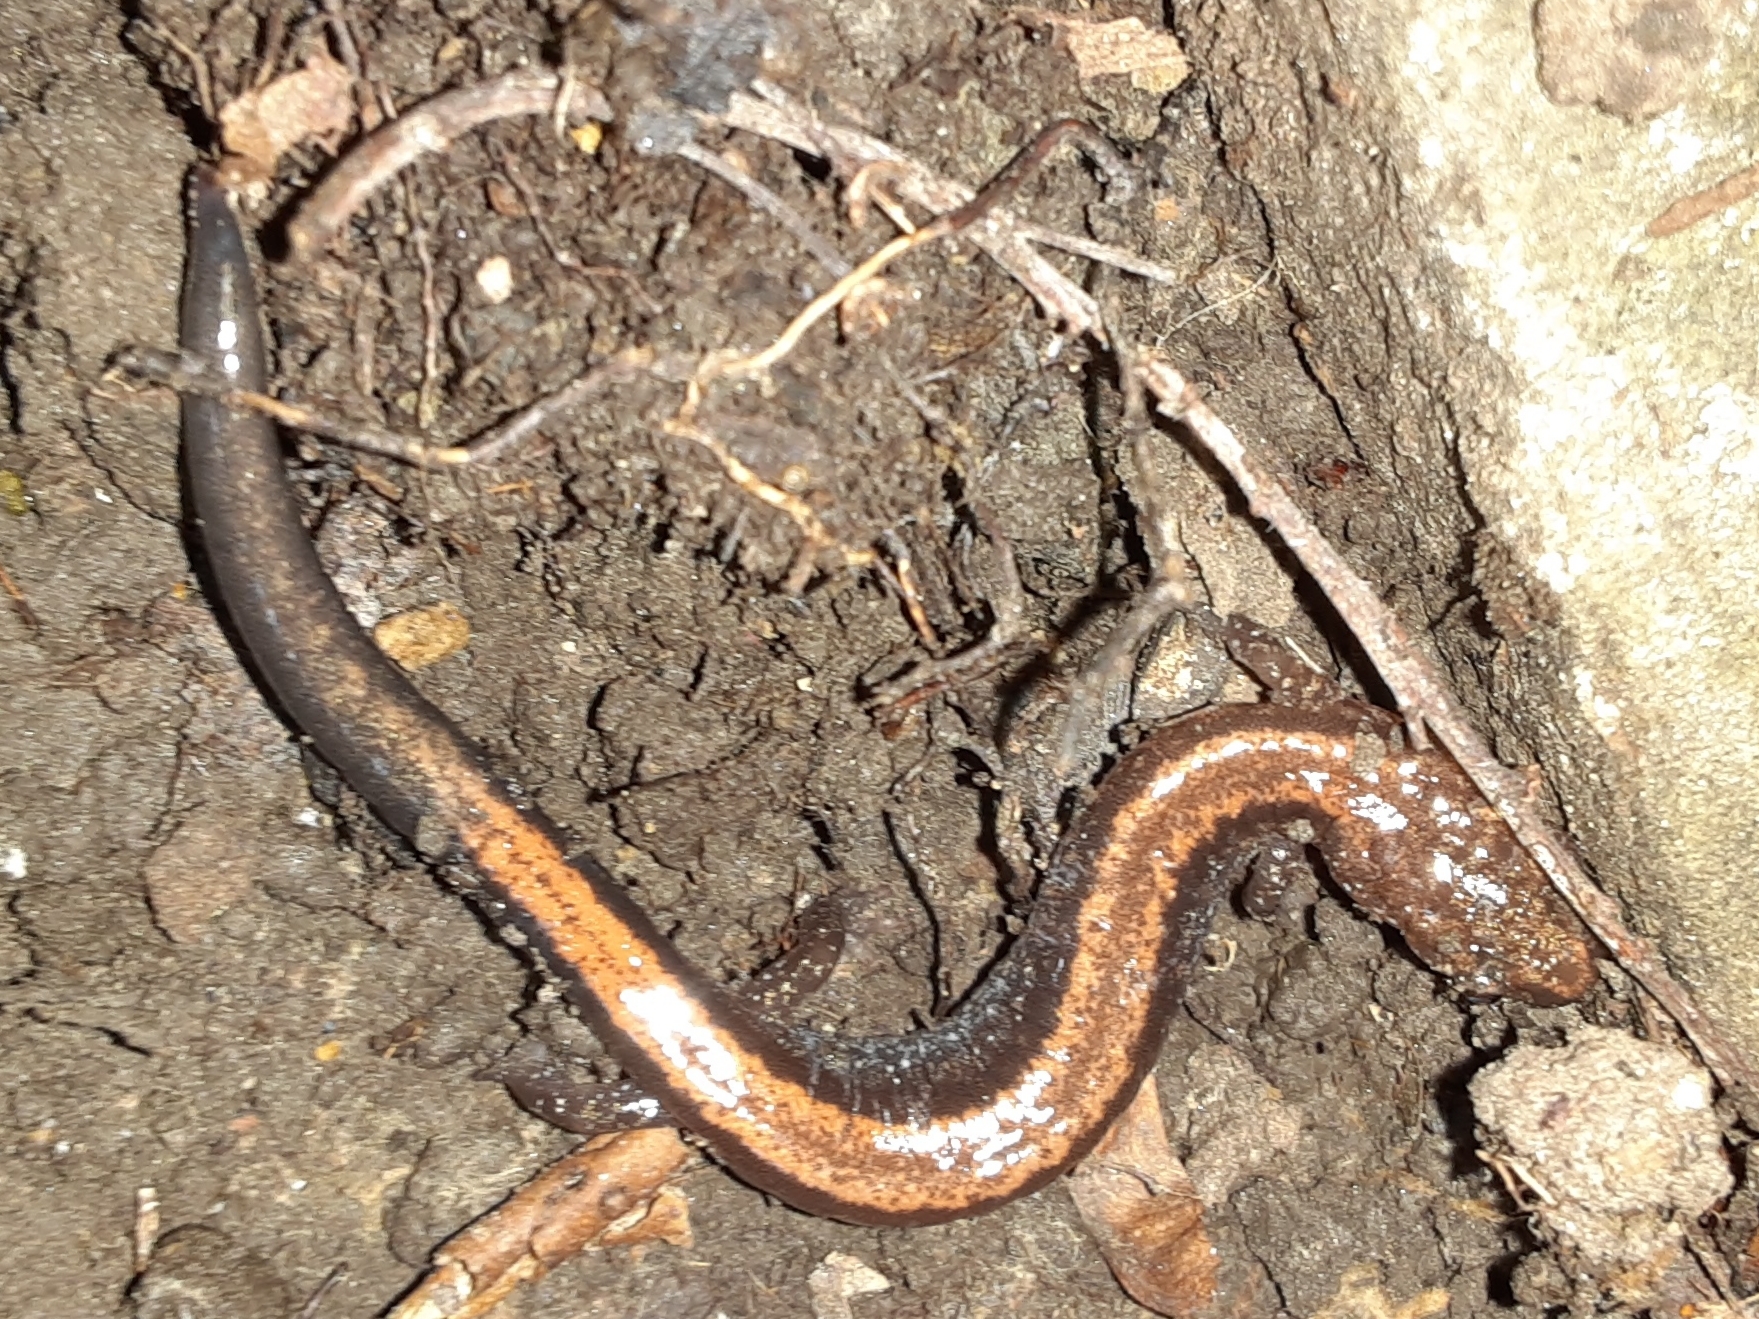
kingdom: Animalia
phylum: Chordata
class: Amphibia
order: Caudata
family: Plethodontidae
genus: Plethodon
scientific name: Plethodon cinereus
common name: Redback salamander
